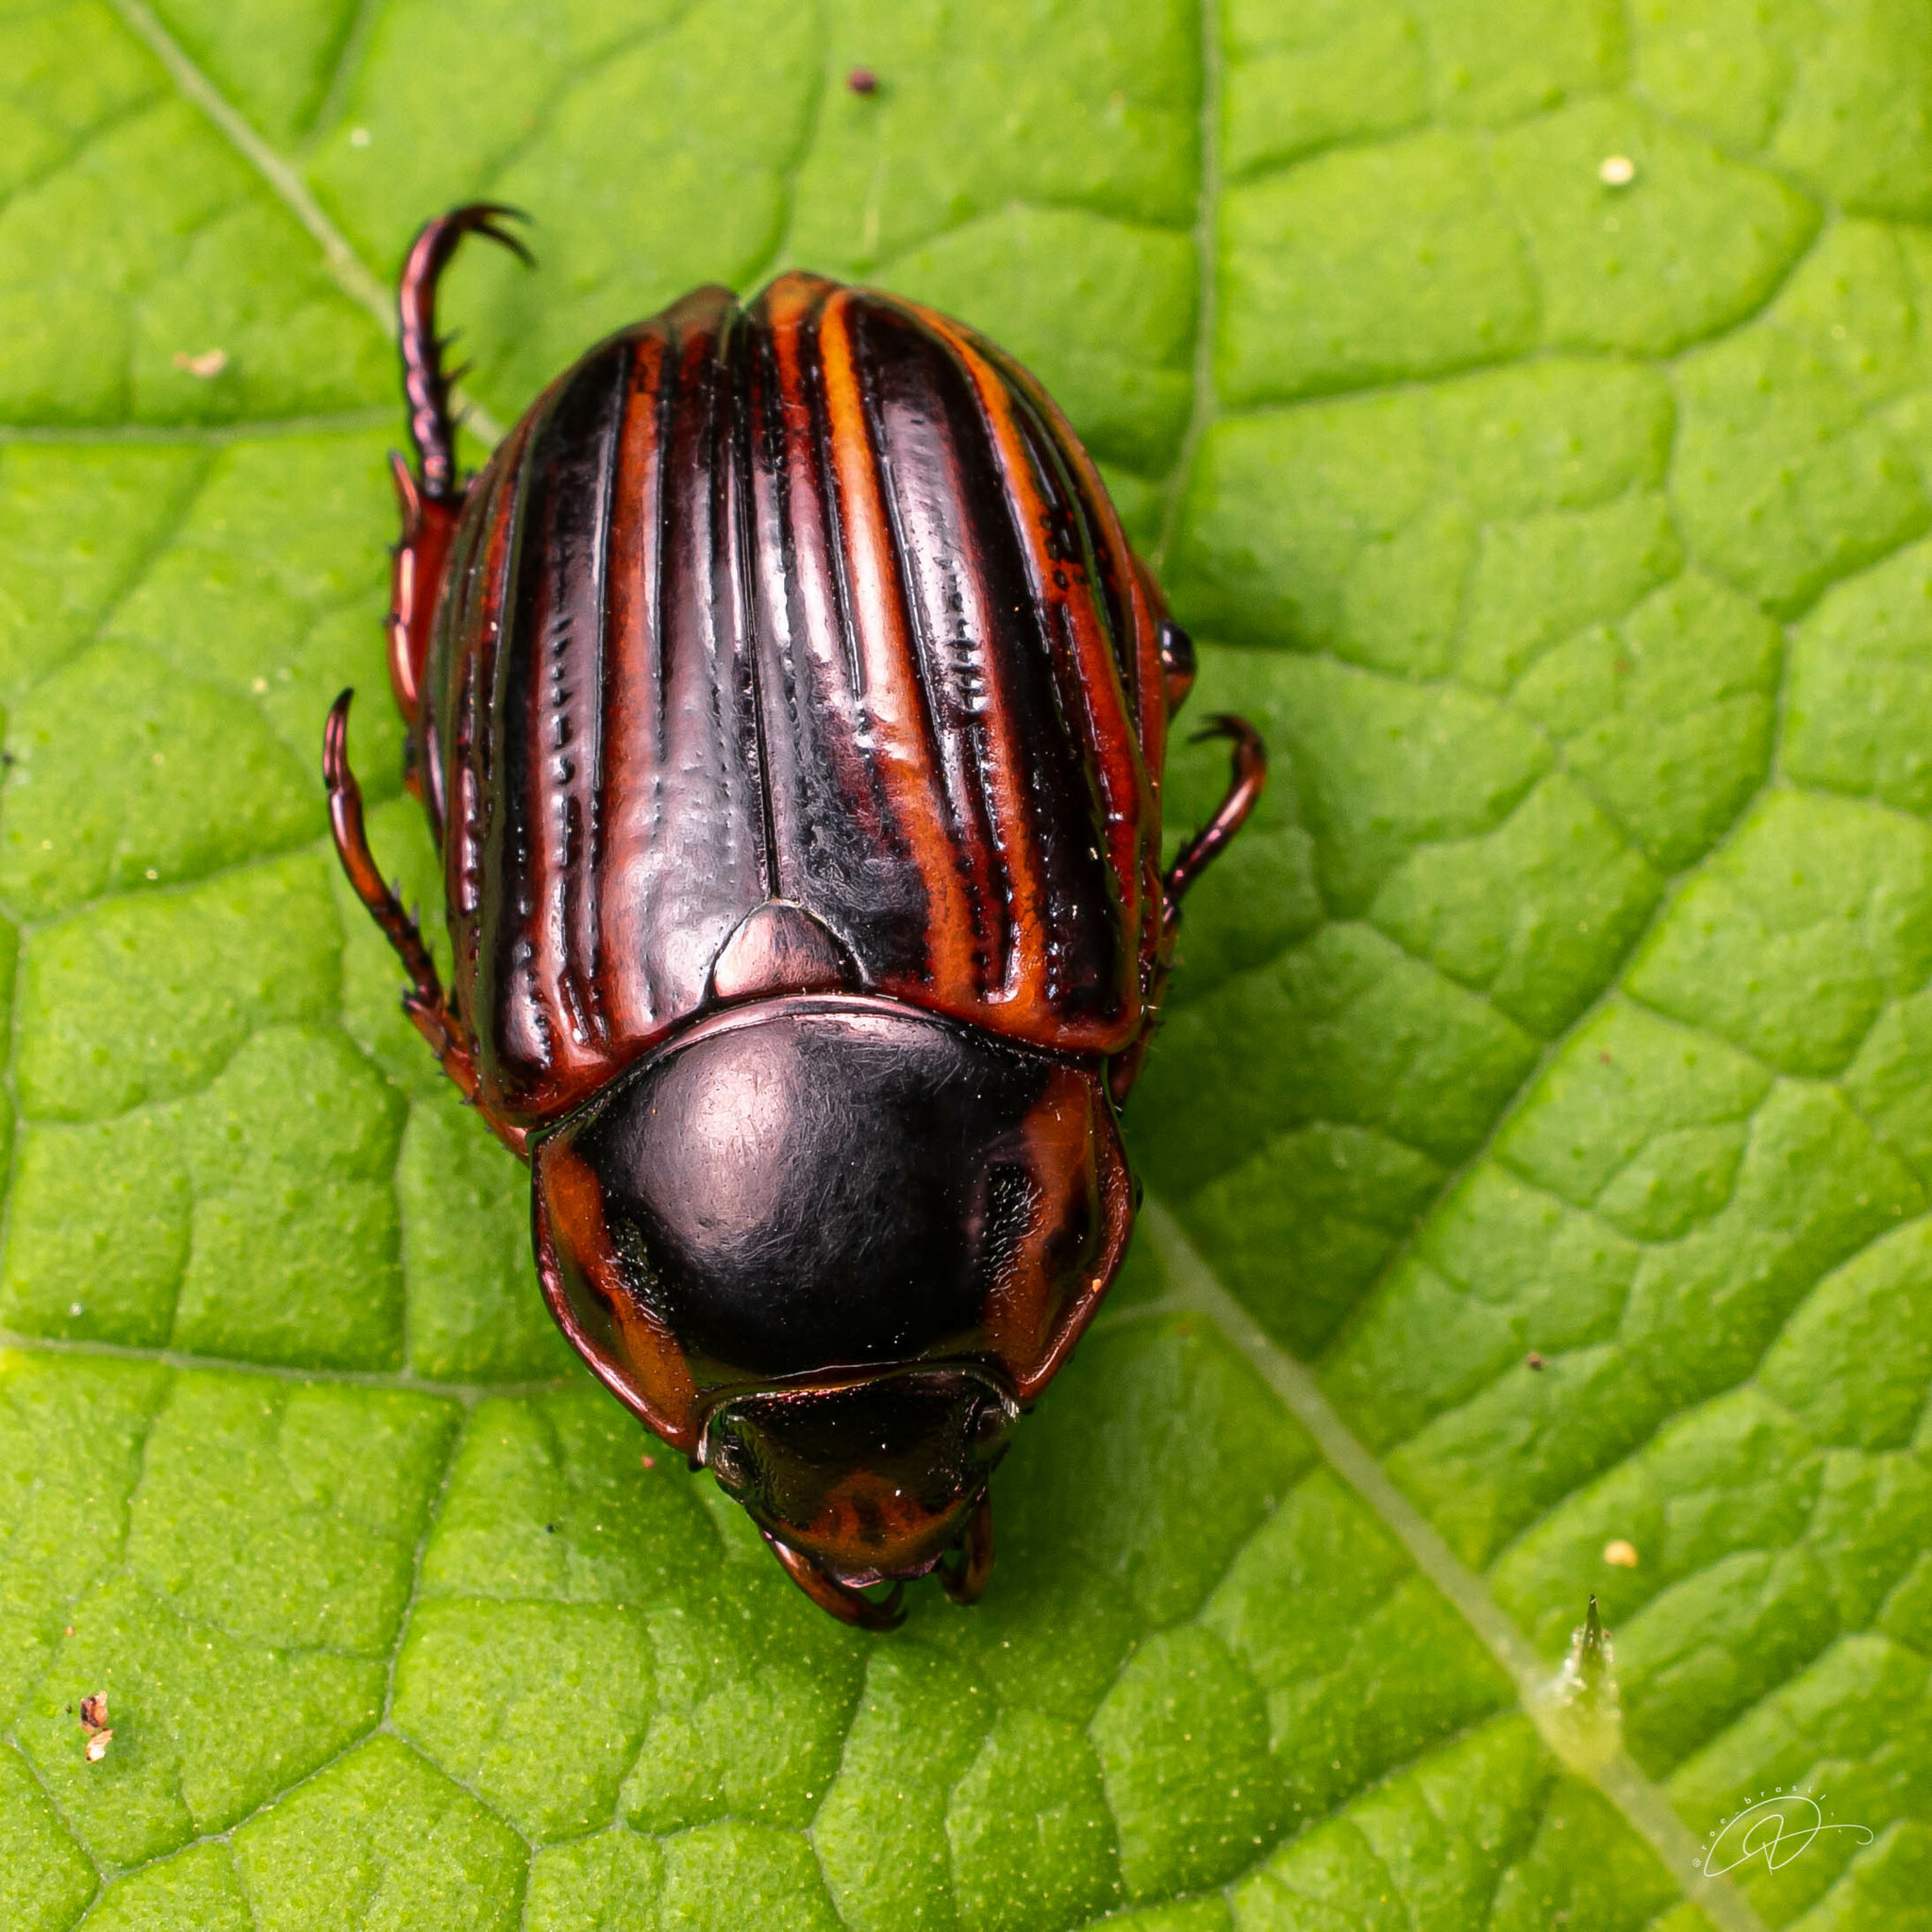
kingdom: Animalia
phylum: Arthropoda
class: Insecta
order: Coleoptera
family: Scarabaeidae
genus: Pelidnota
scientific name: Pelidnota nitescens
